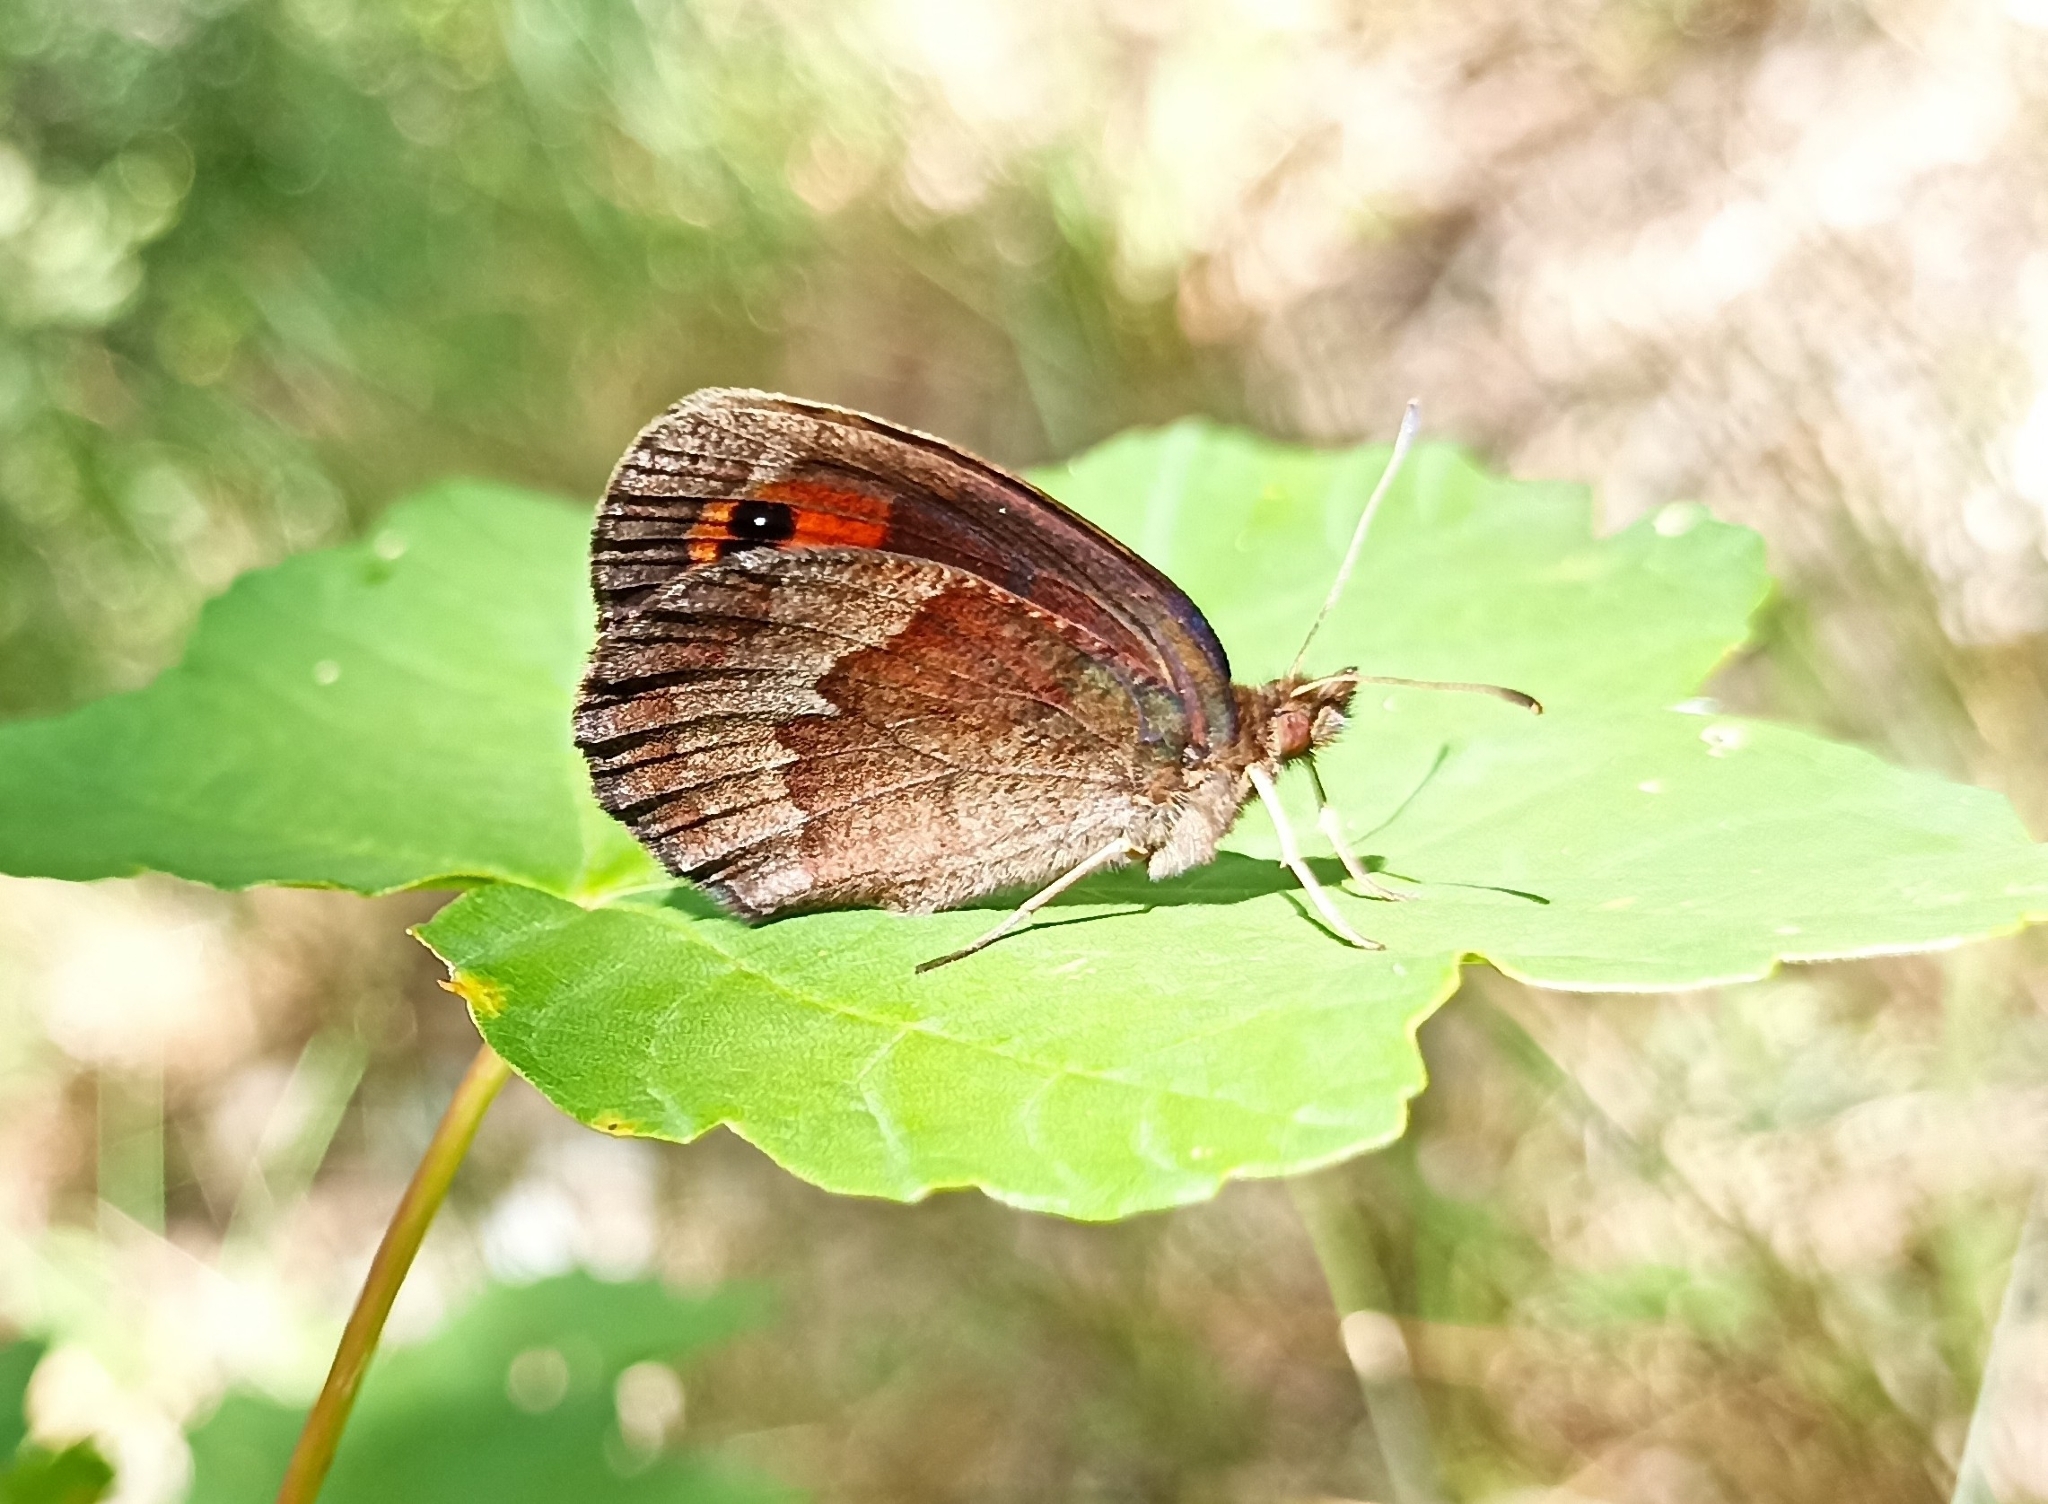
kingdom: Animalia
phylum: Arthropoda
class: Insecta
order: Lepidoptera
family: Nymphalidae
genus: Erebia
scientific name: Erebia neoridas
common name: Autumn ringlet
